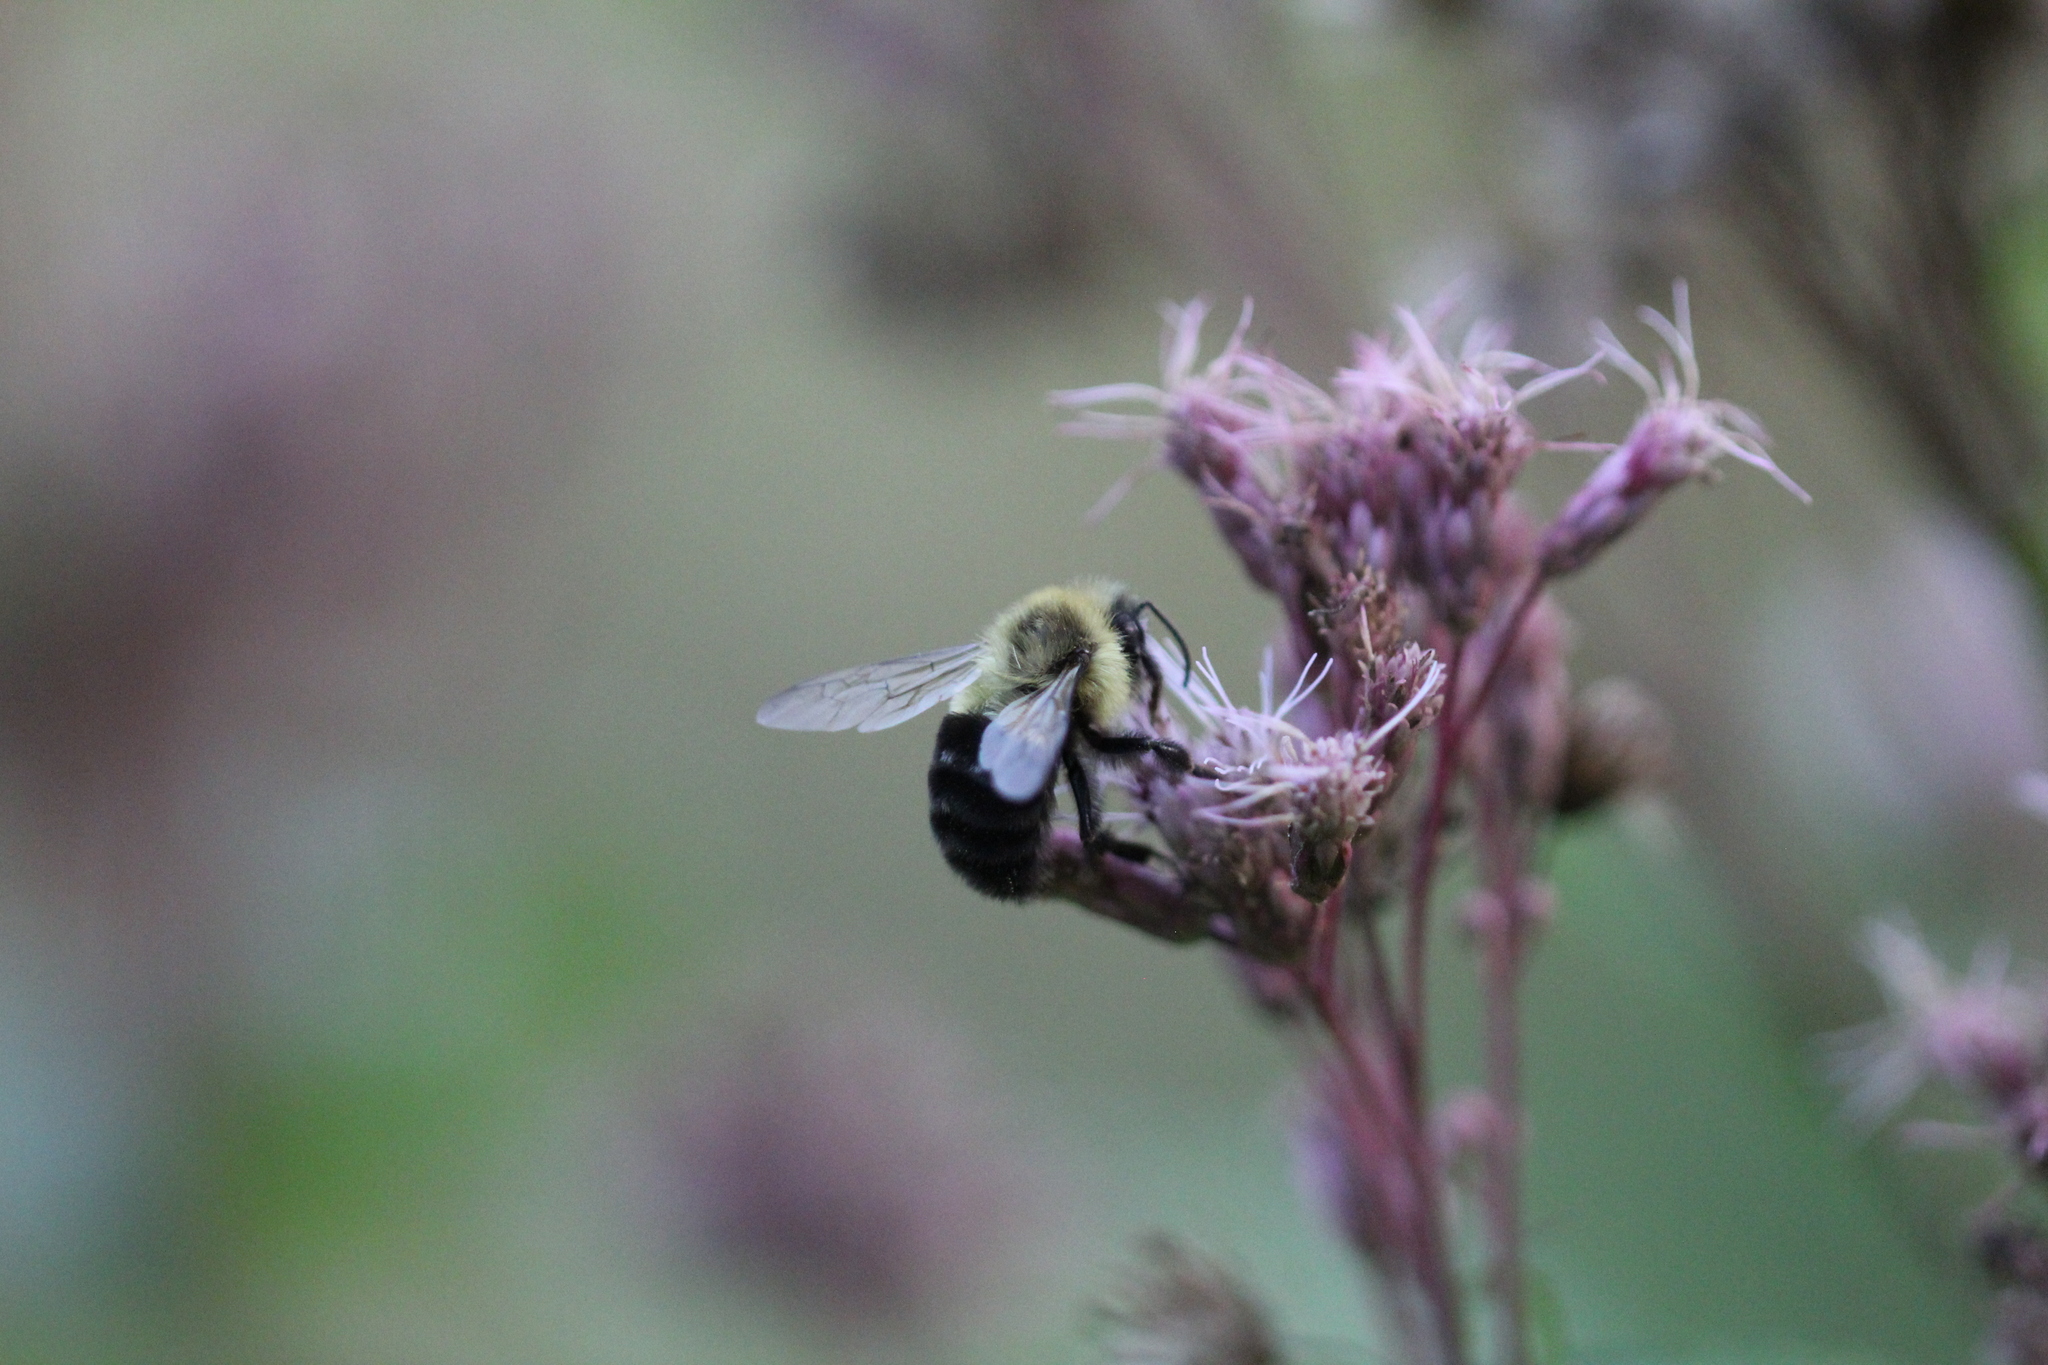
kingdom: Animalia
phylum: Arthropoda
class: Insecta
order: Hymenoptera
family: Apidae
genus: Bombus
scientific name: Bombus impatiens
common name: Common eastern bumble bee
